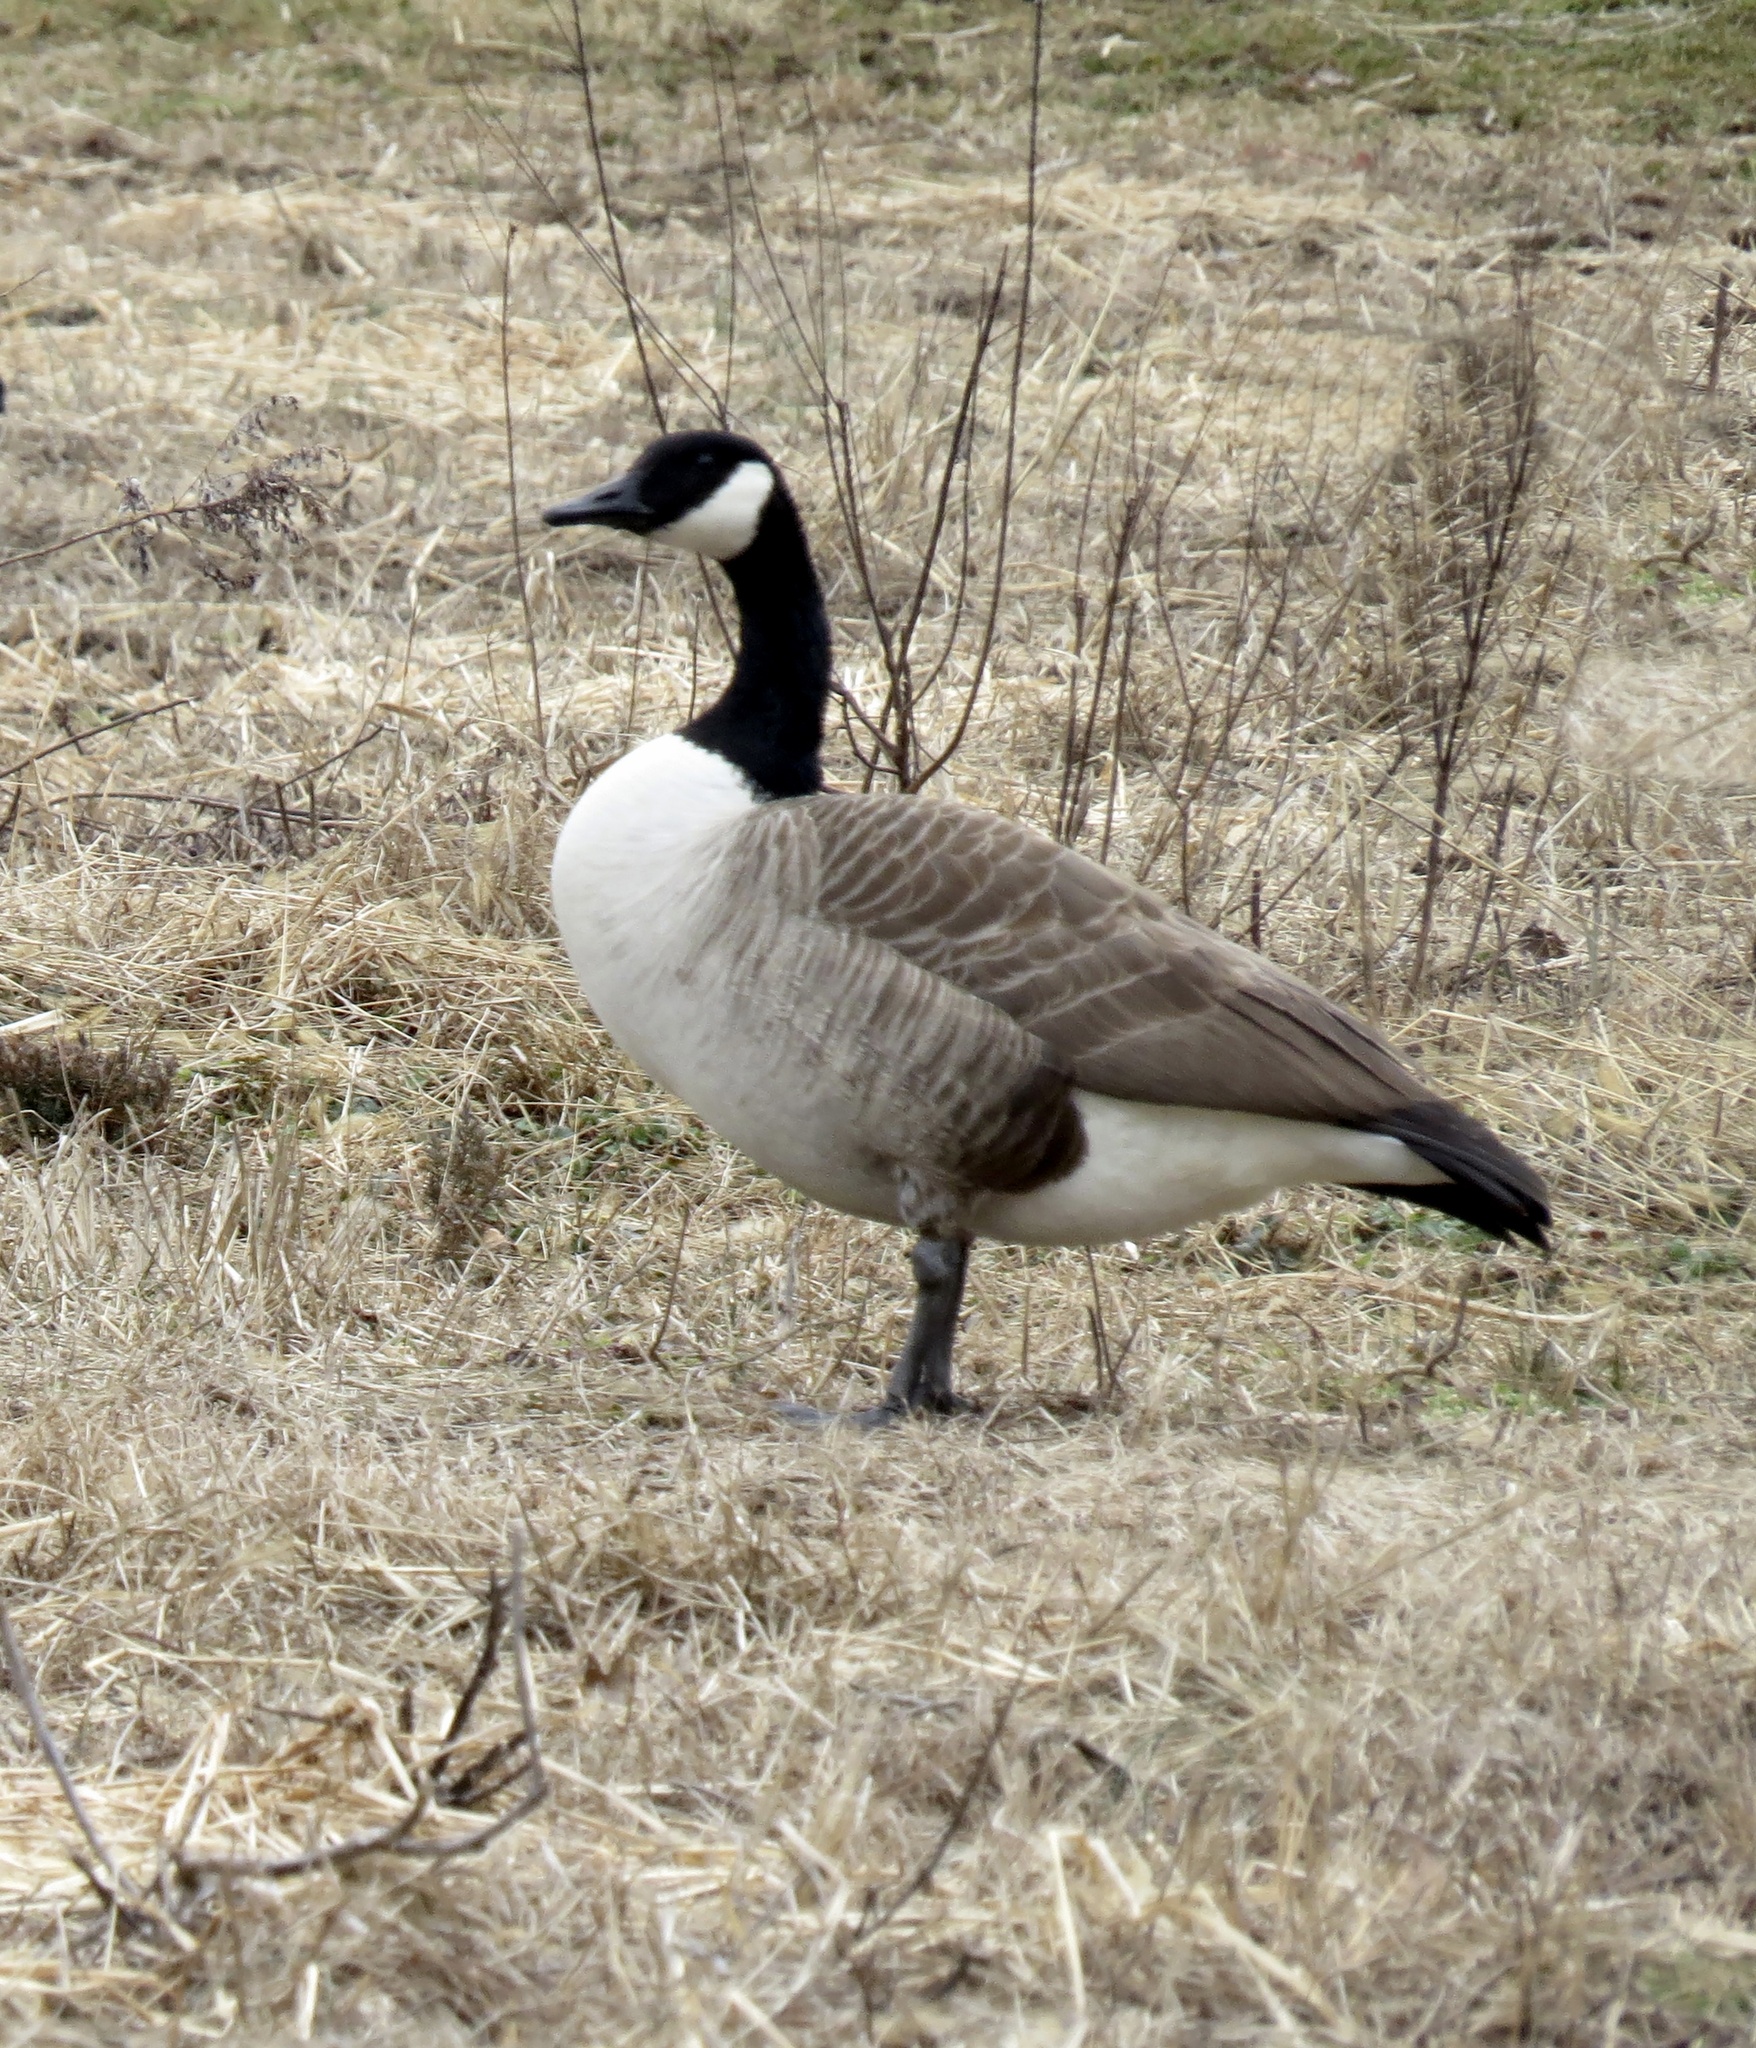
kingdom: Animalia
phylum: Chordata
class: Aves
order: Anseriformes
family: Anatidae
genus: Branta
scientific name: Branta canadensis
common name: Canada goose
